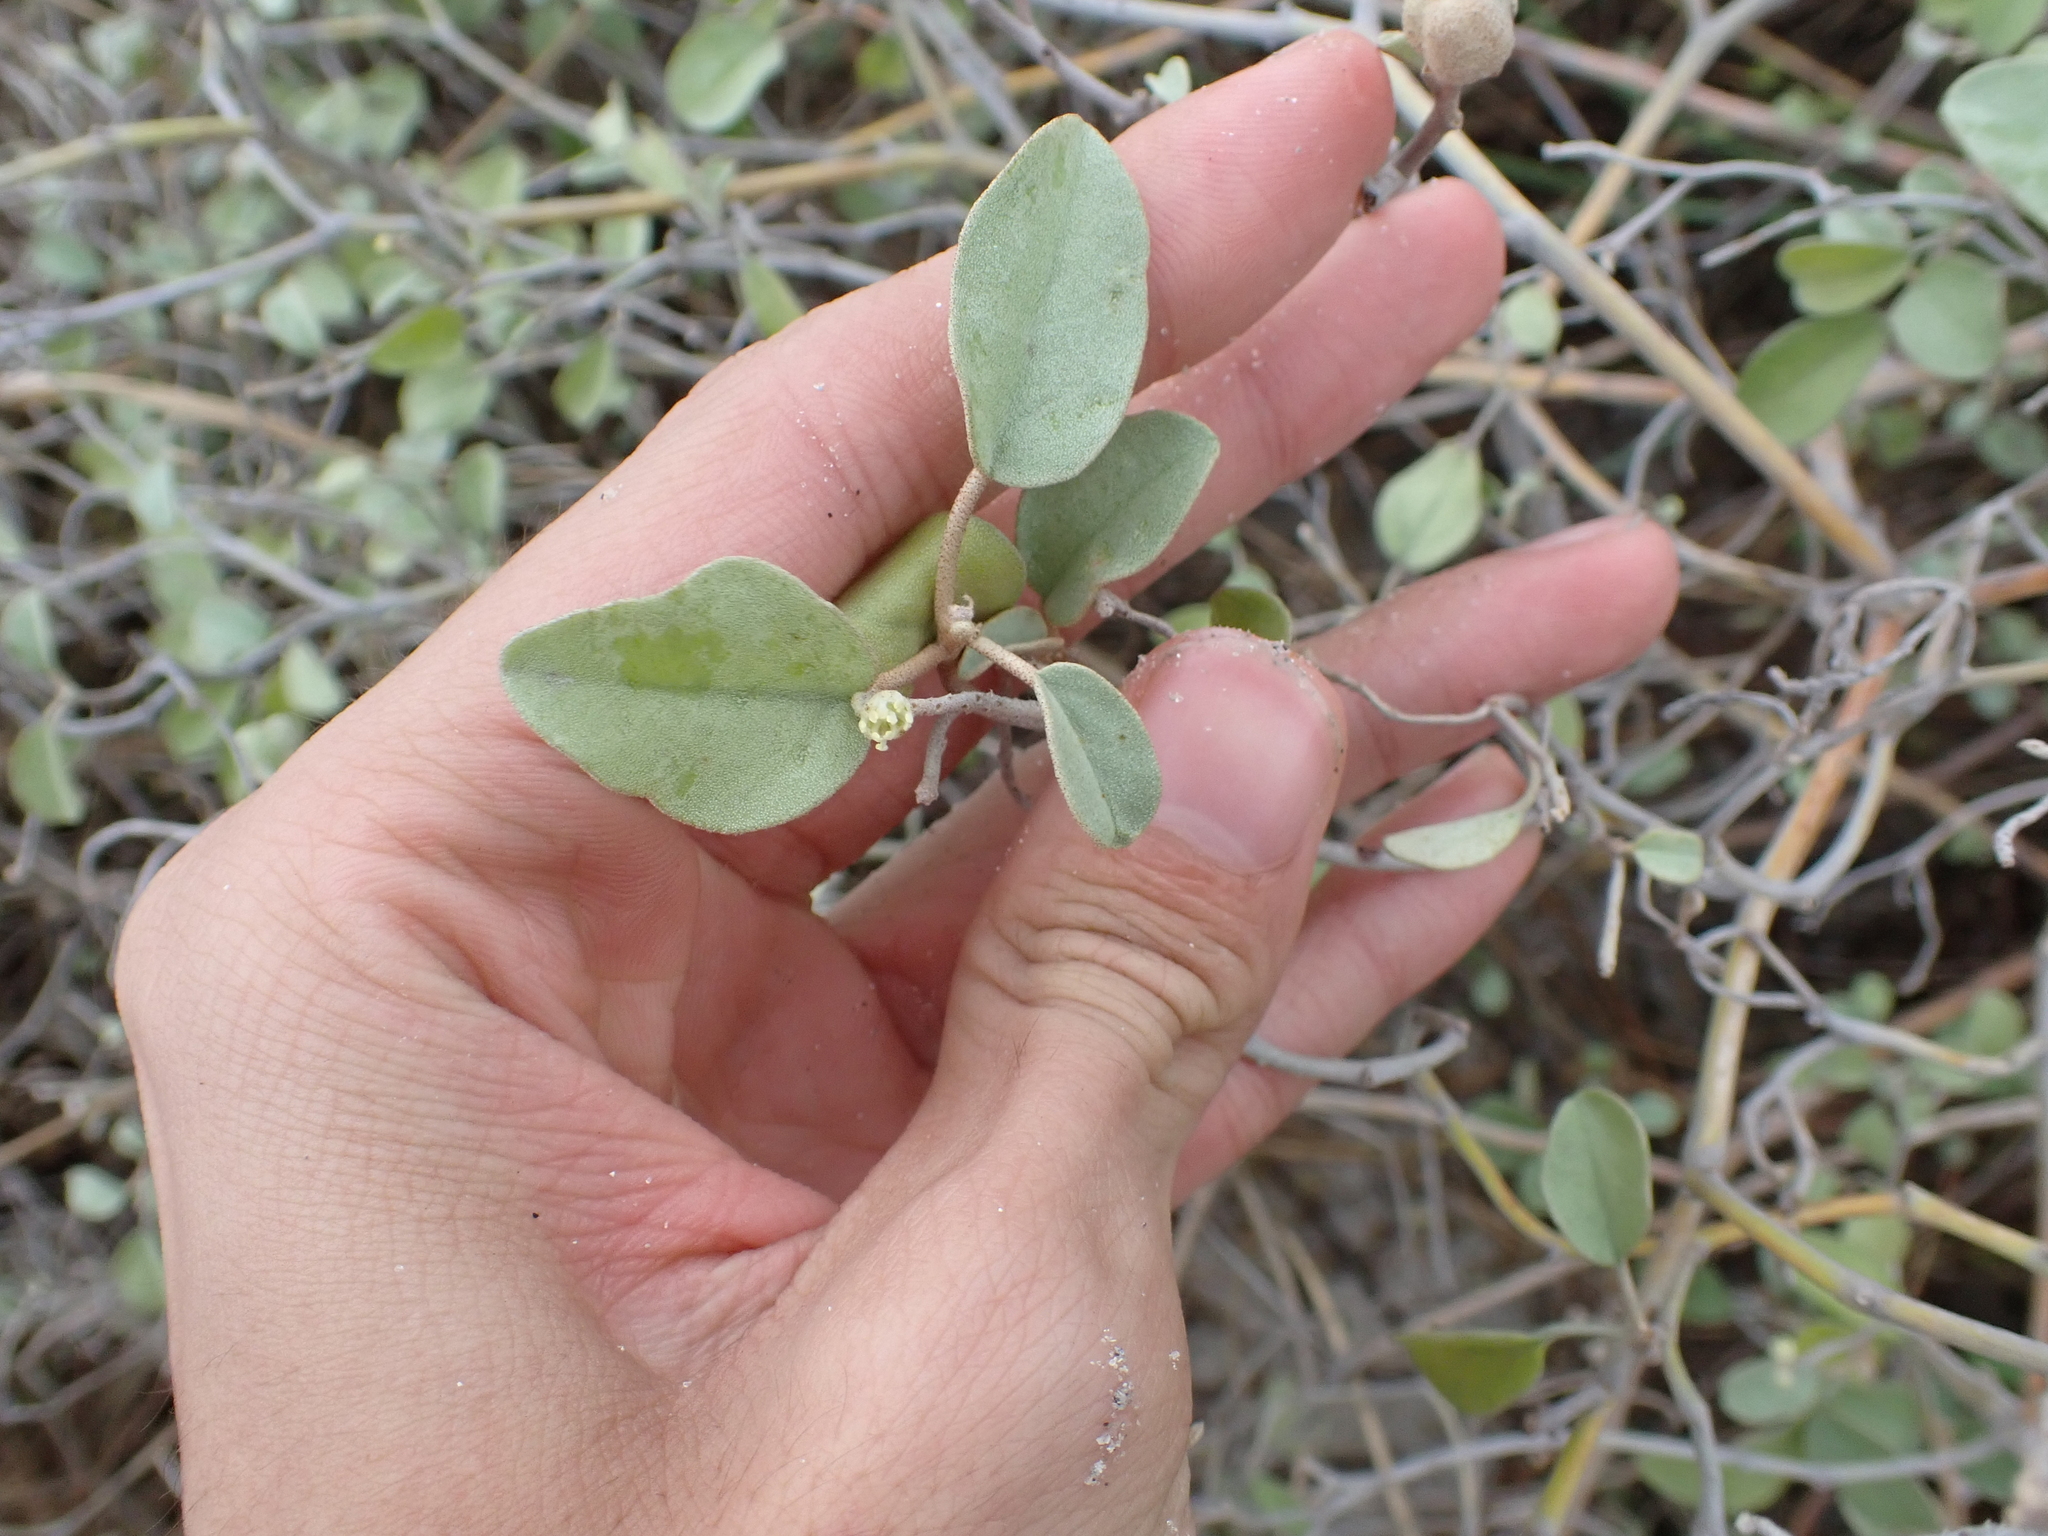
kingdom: Plantae
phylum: Tracheophyta
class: Magnoliopsida
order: Malpighiales
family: Euphorbiaceae
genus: Croton
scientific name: Croton punctatus
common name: Beach-tea
